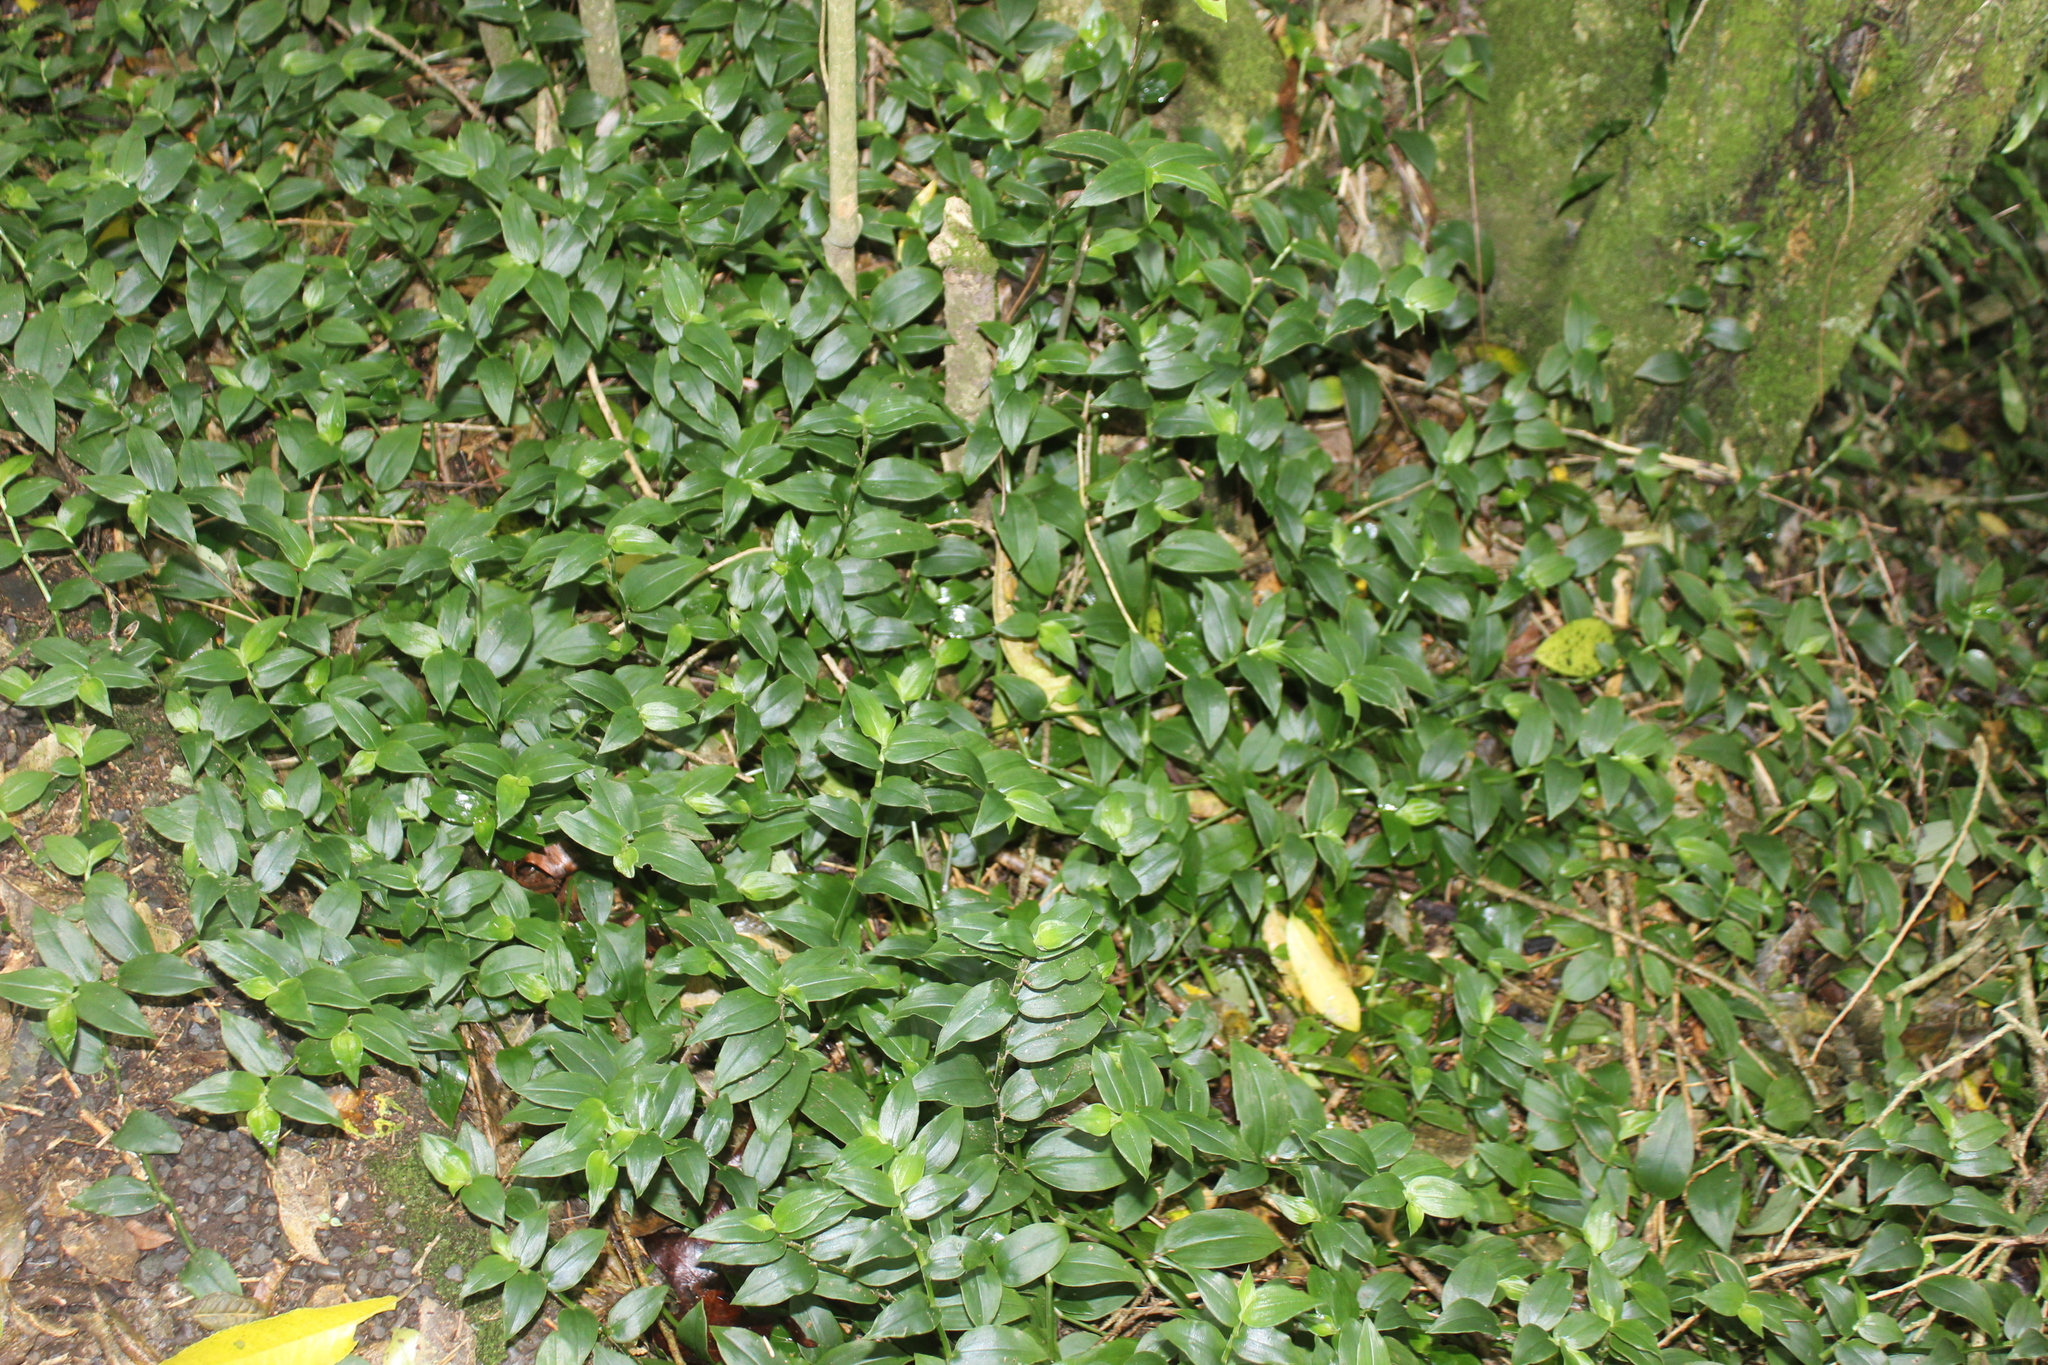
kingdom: Plantae
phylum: Tracheophyta
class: Liliopsida
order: Commelinales
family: Commelinaceae
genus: Tradescantia
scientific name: Tradescantia fluminensis
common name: Wandering-jew
